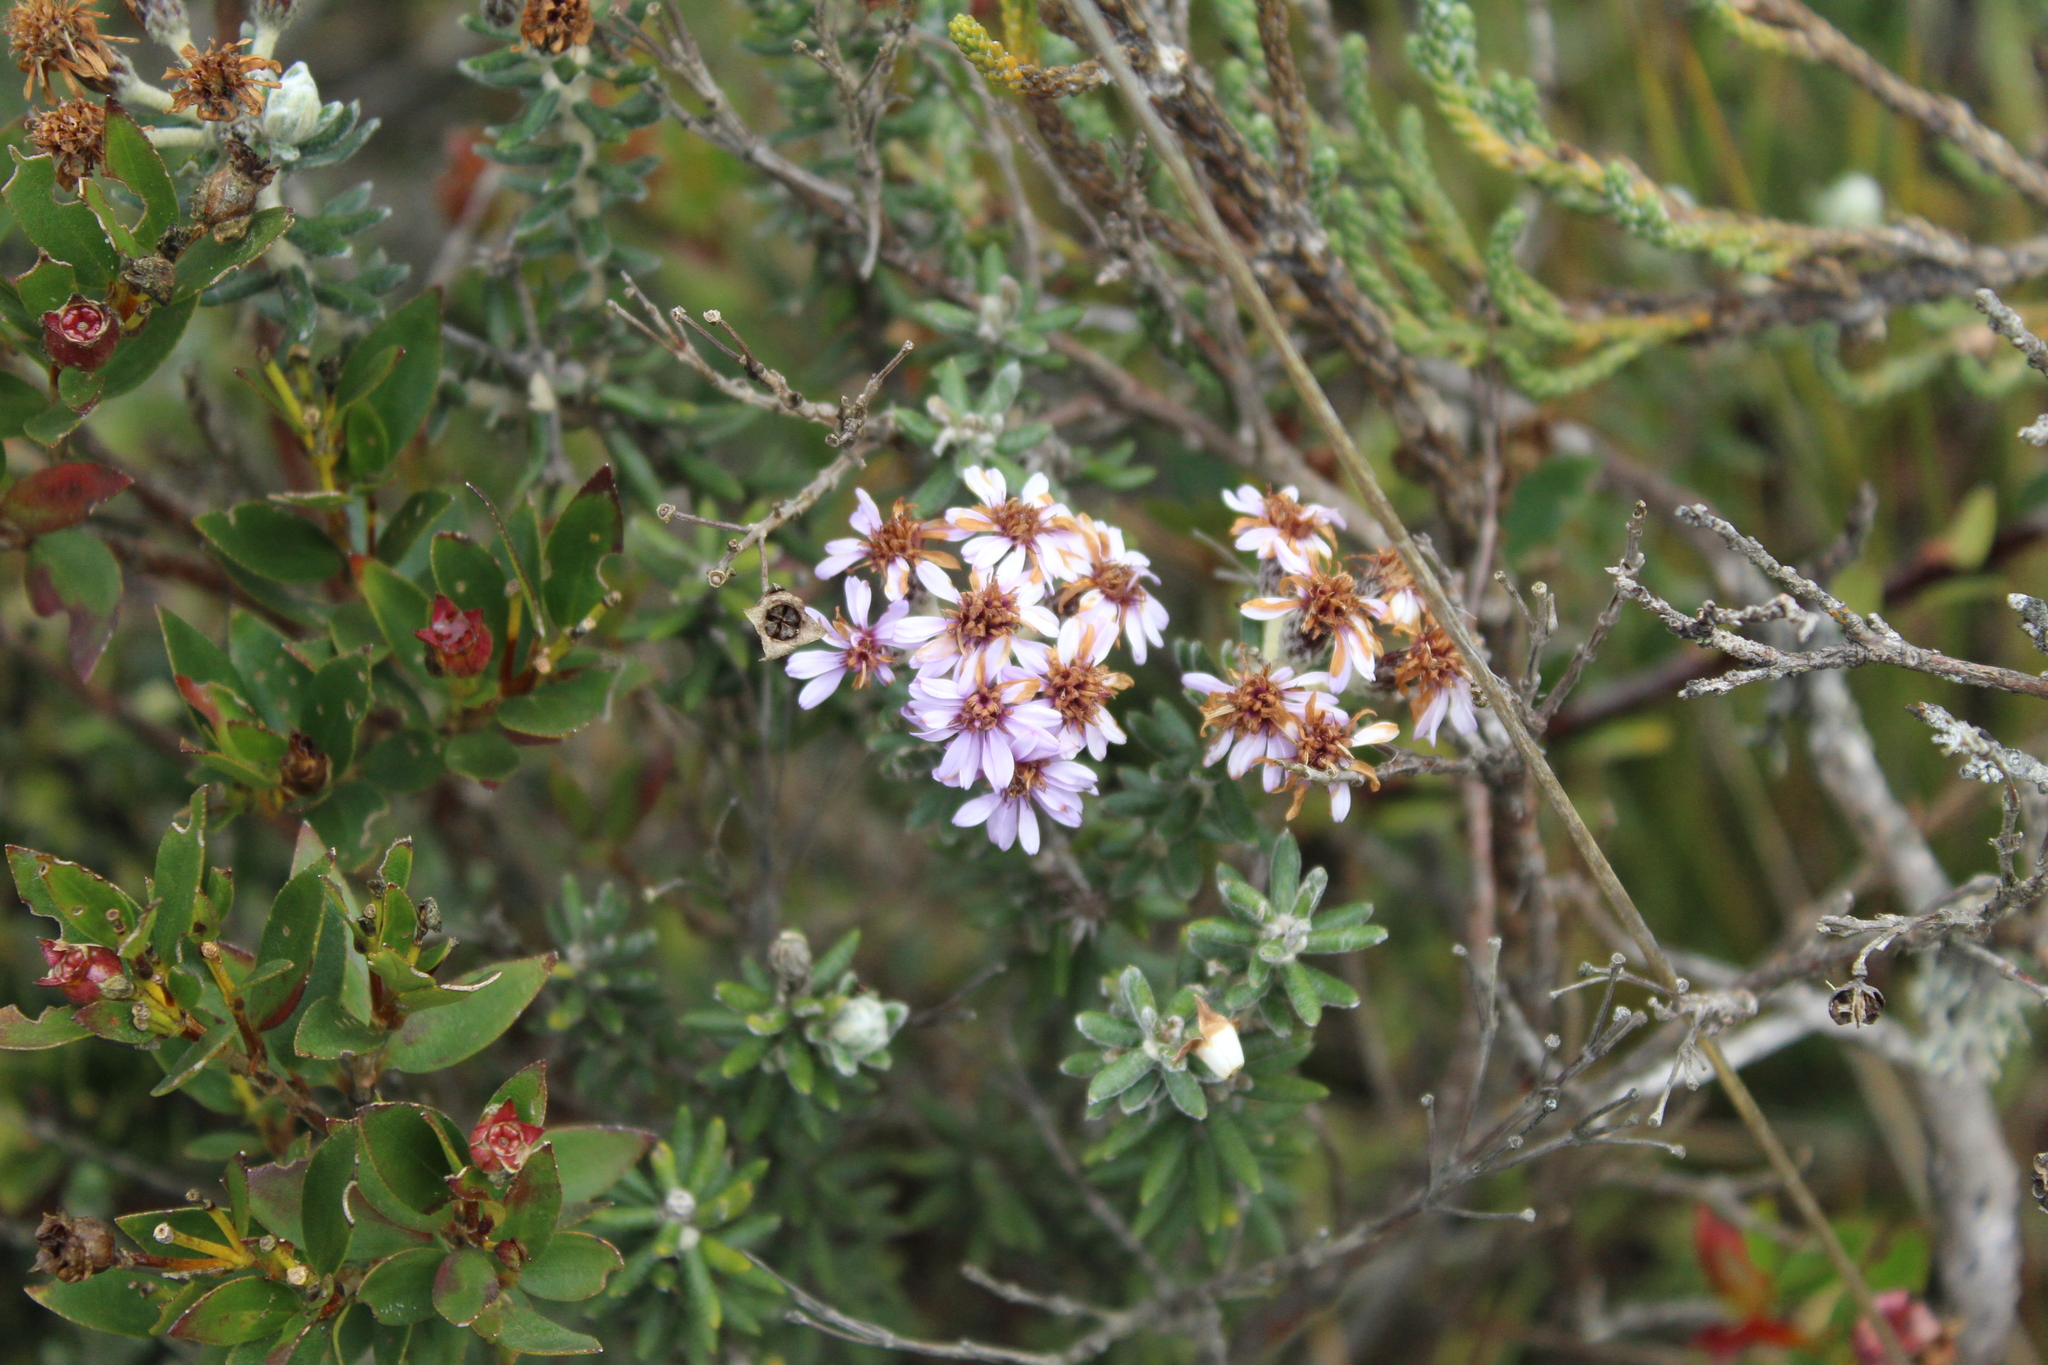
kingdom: Plantae
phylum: Tracheophyta
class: Magnoliopsida
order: Asterales
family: Asteraceae
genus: Linochilus
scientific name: Linochilus phylicoides
